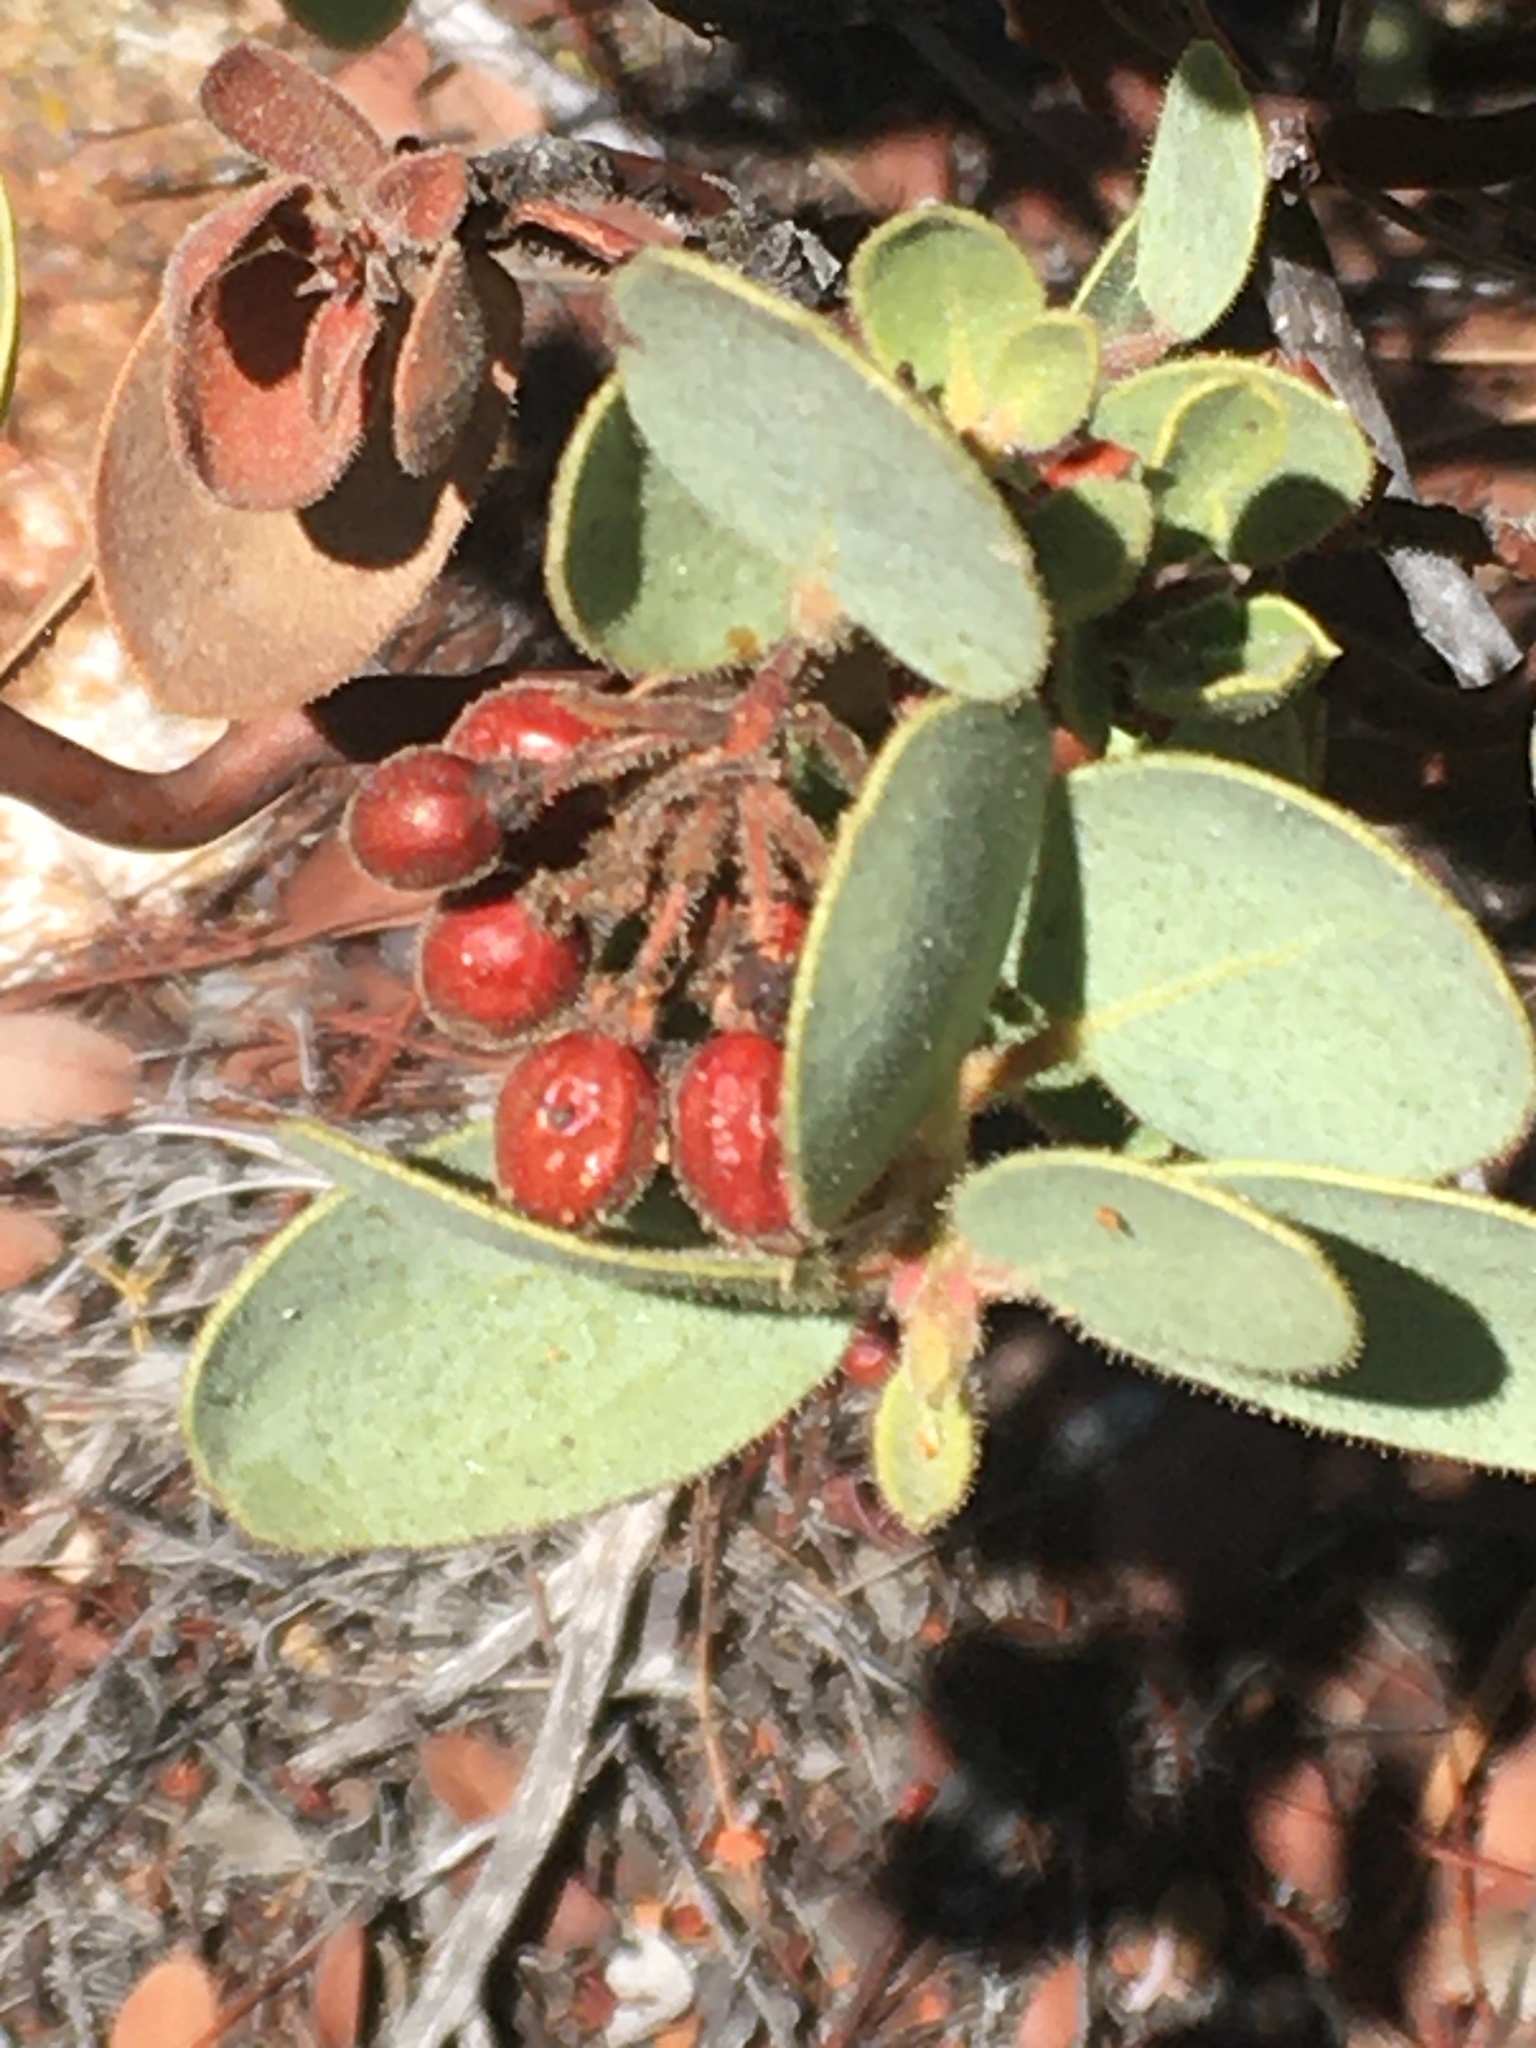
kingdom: Plantae
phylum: Tracheophyta
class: Magnoliopsida
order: Ericales
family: Ericaceae
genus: Arctostaphylos
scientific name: Arctostaphylos pringlei
